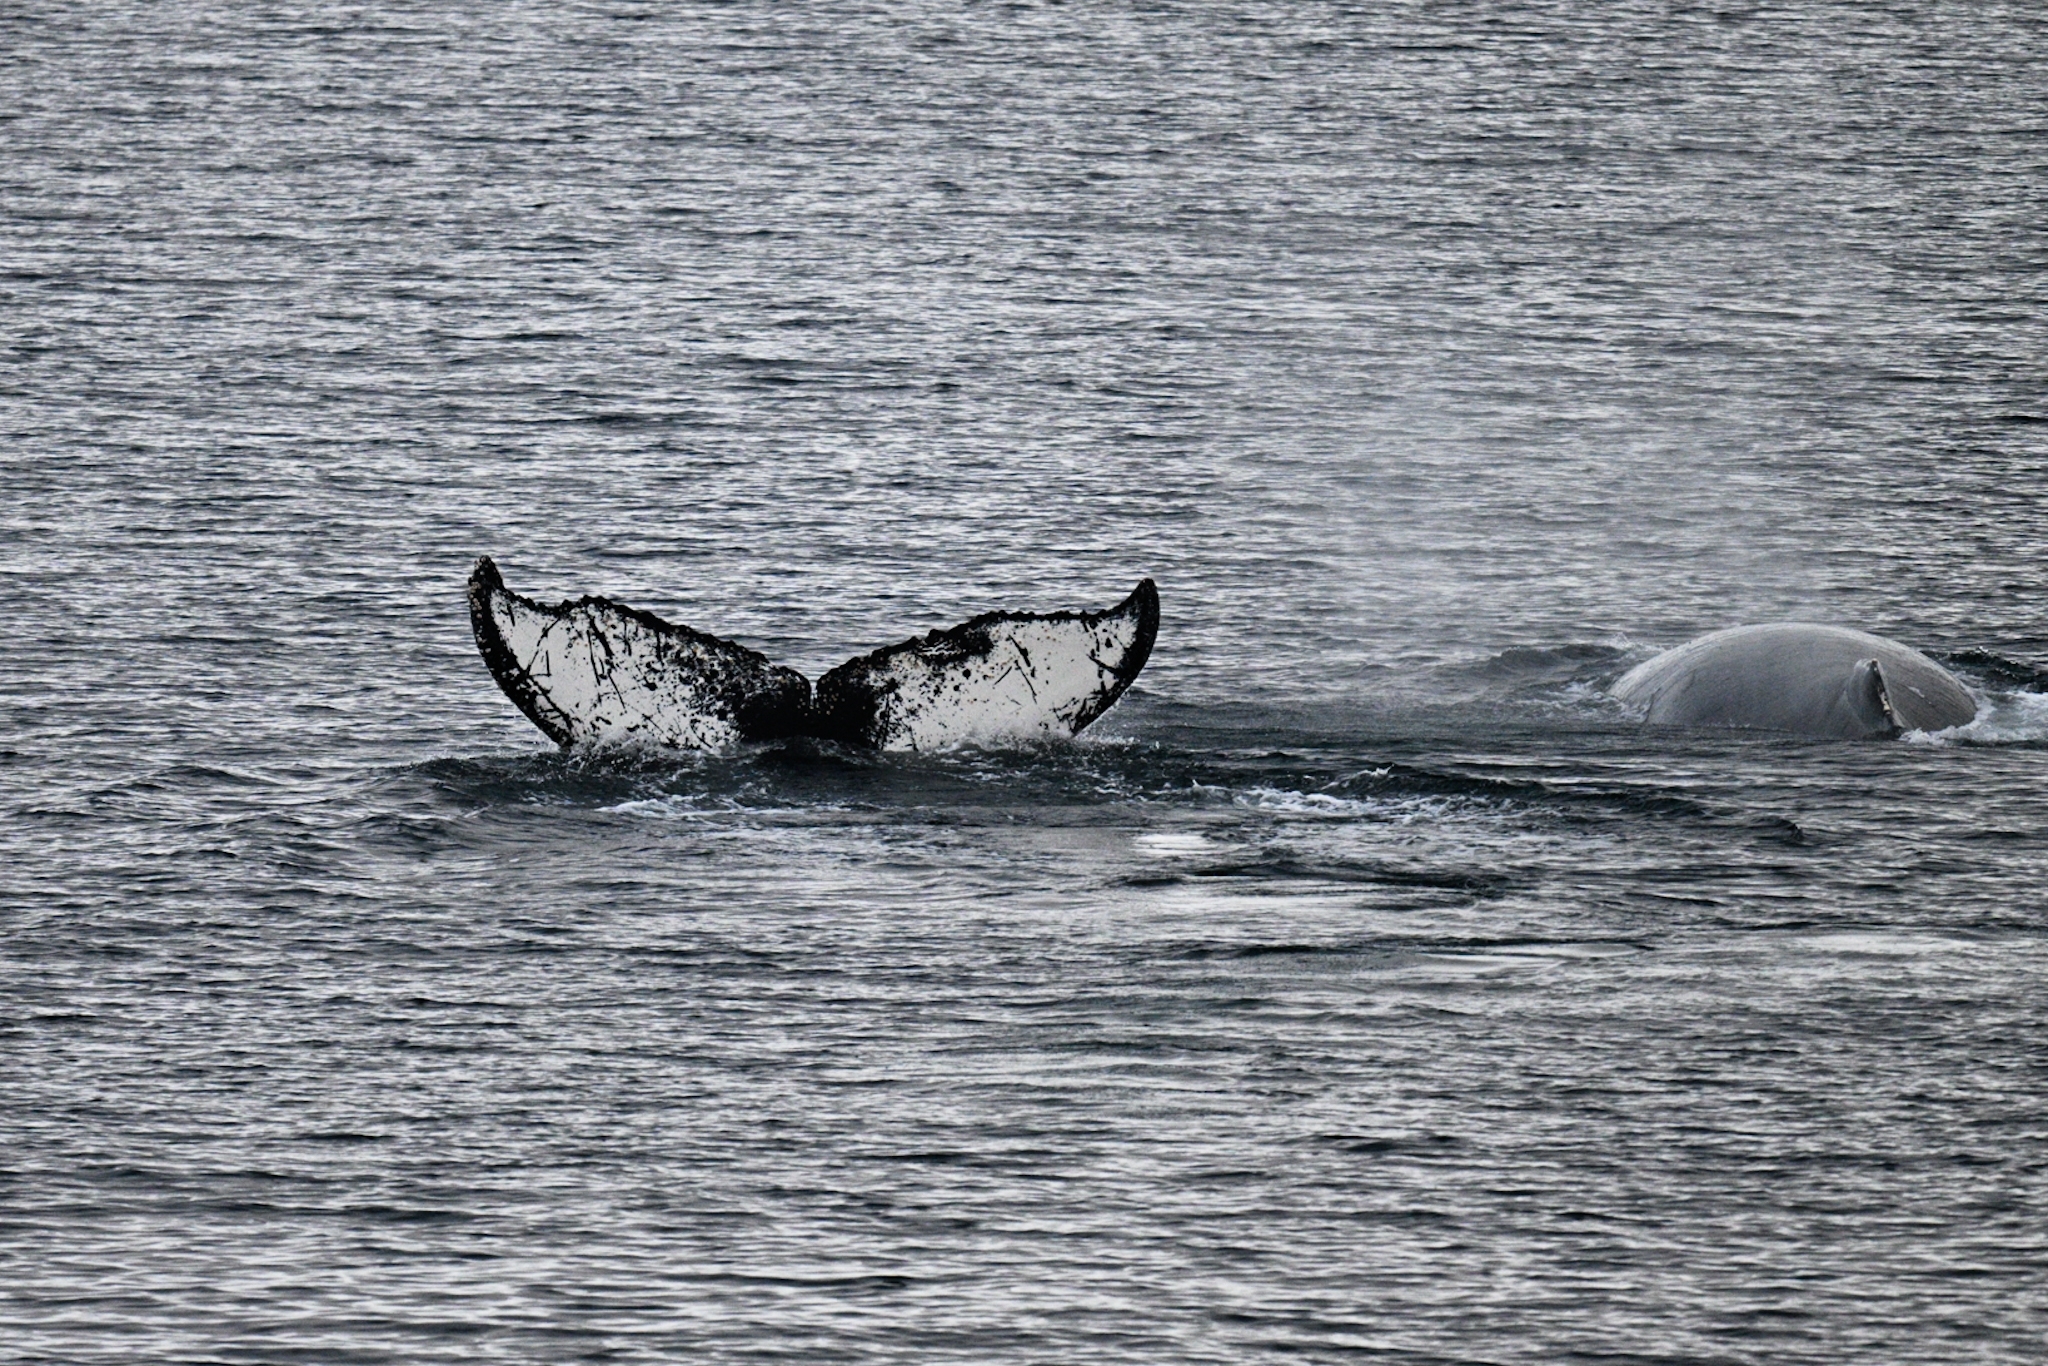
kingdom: Animalia
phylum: Chordata
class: Mammalia
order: Cetacea
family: Balaenopteridae
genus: Megaptera
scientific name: Megaptera novaeangliae
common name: Humpback whale
